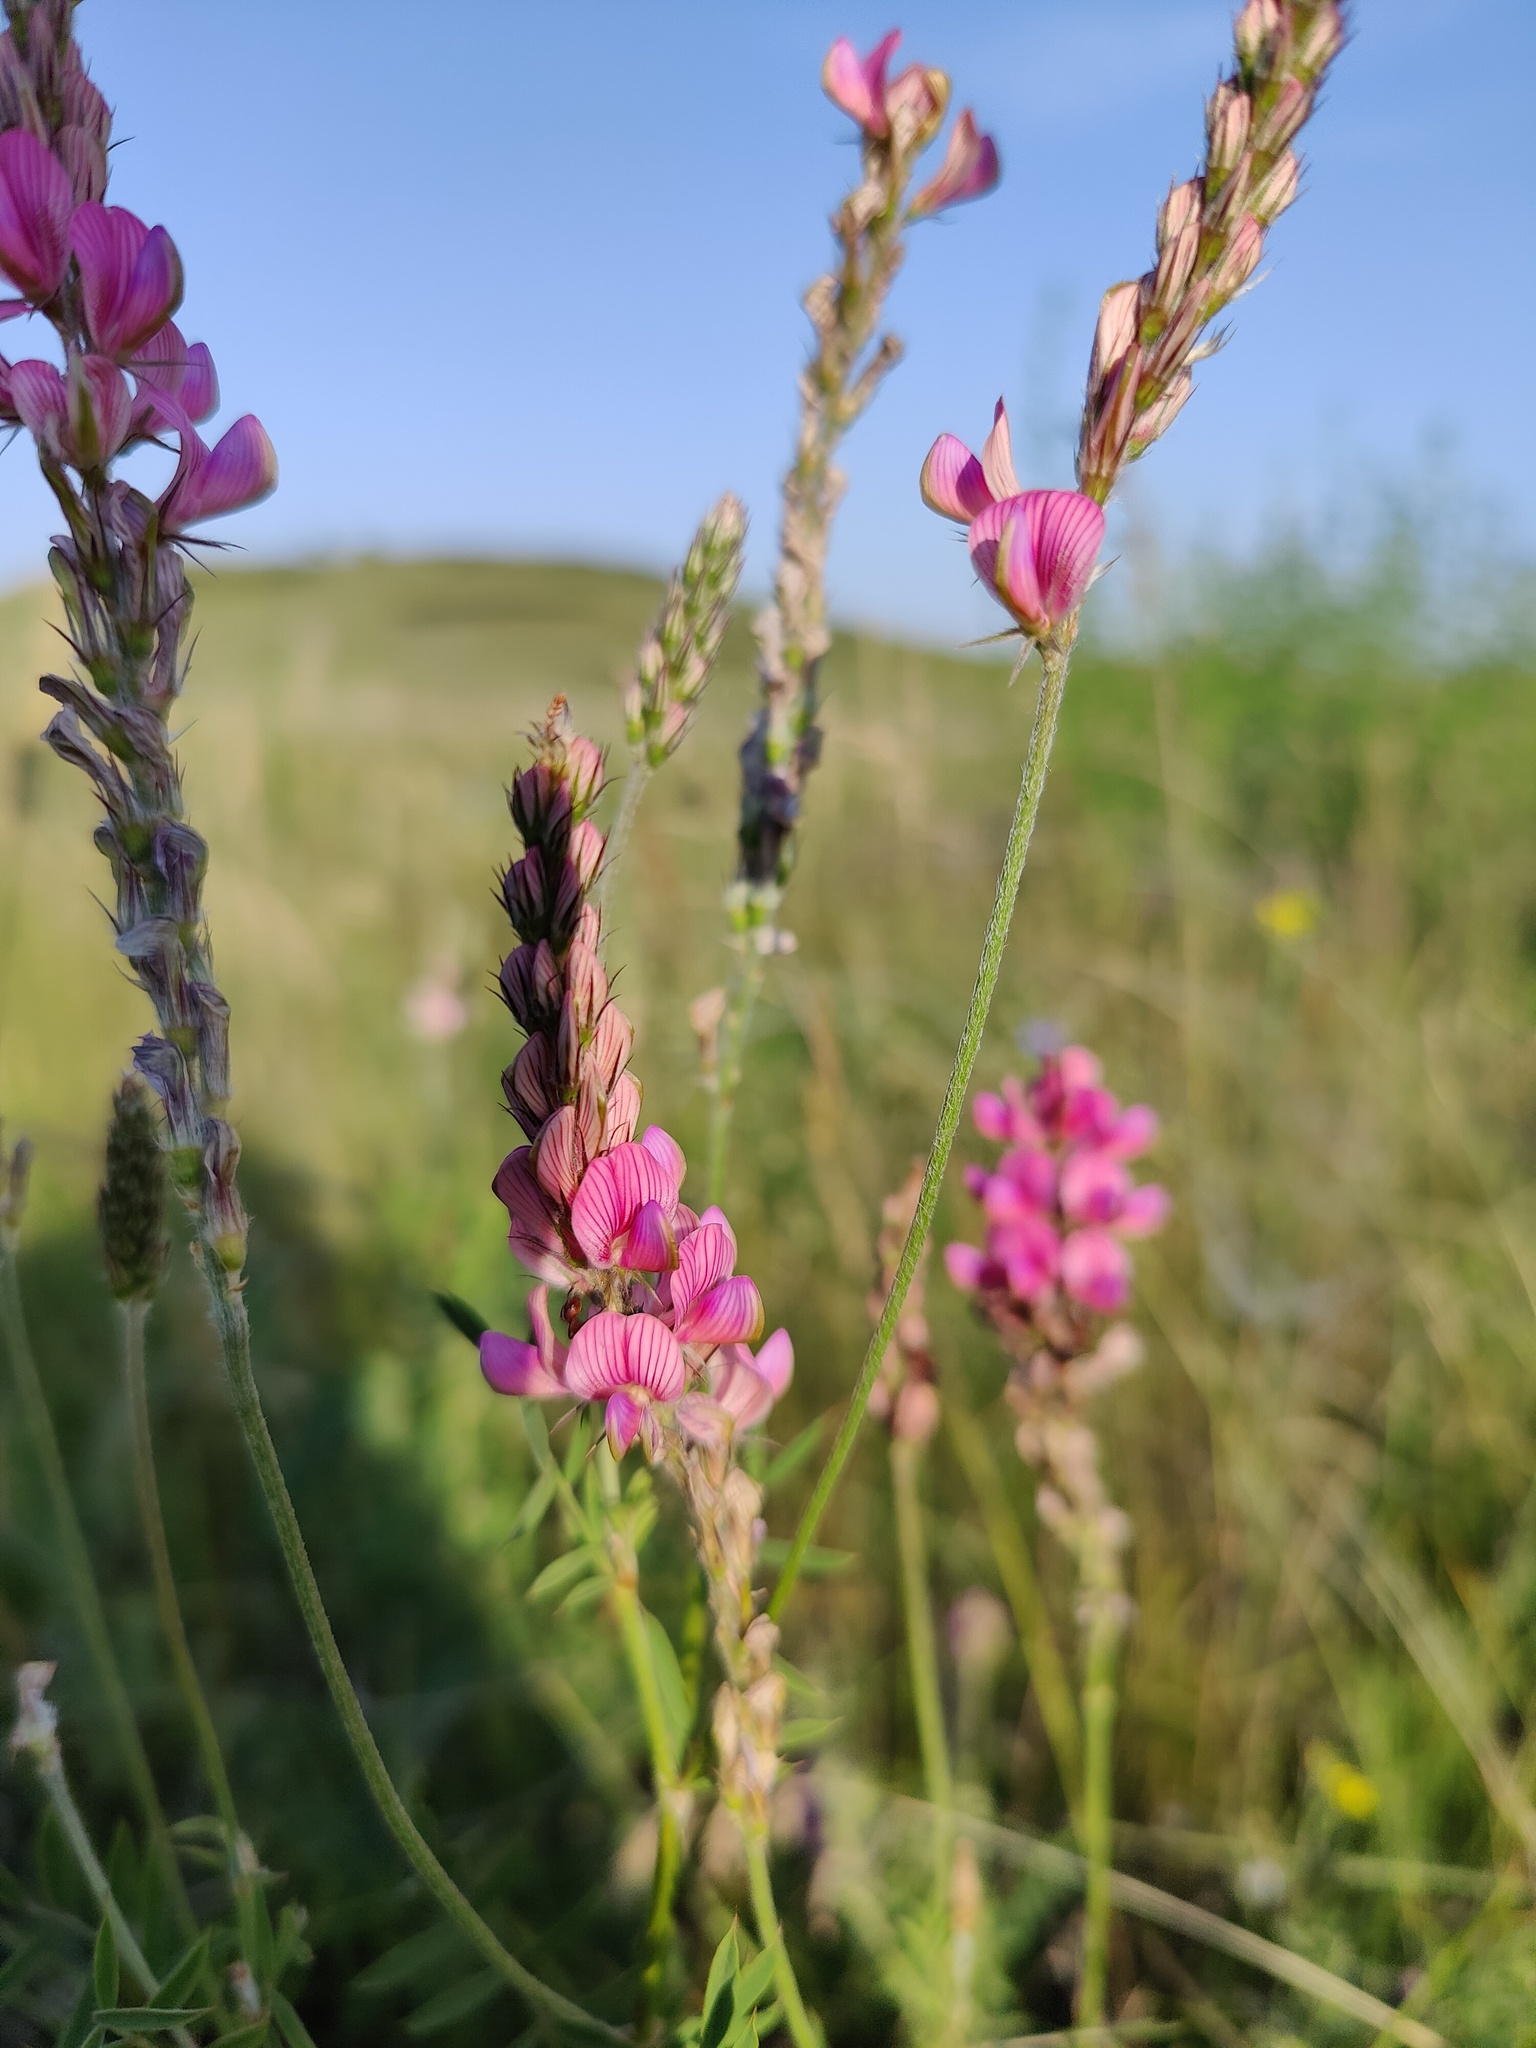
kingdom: Plantae
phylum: Tracheophyta
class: Magnoliopsida
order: Fabales
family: Fabaceae
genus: Onobrychis
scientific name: Onobrychis arenaria
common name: Sand esparcet
